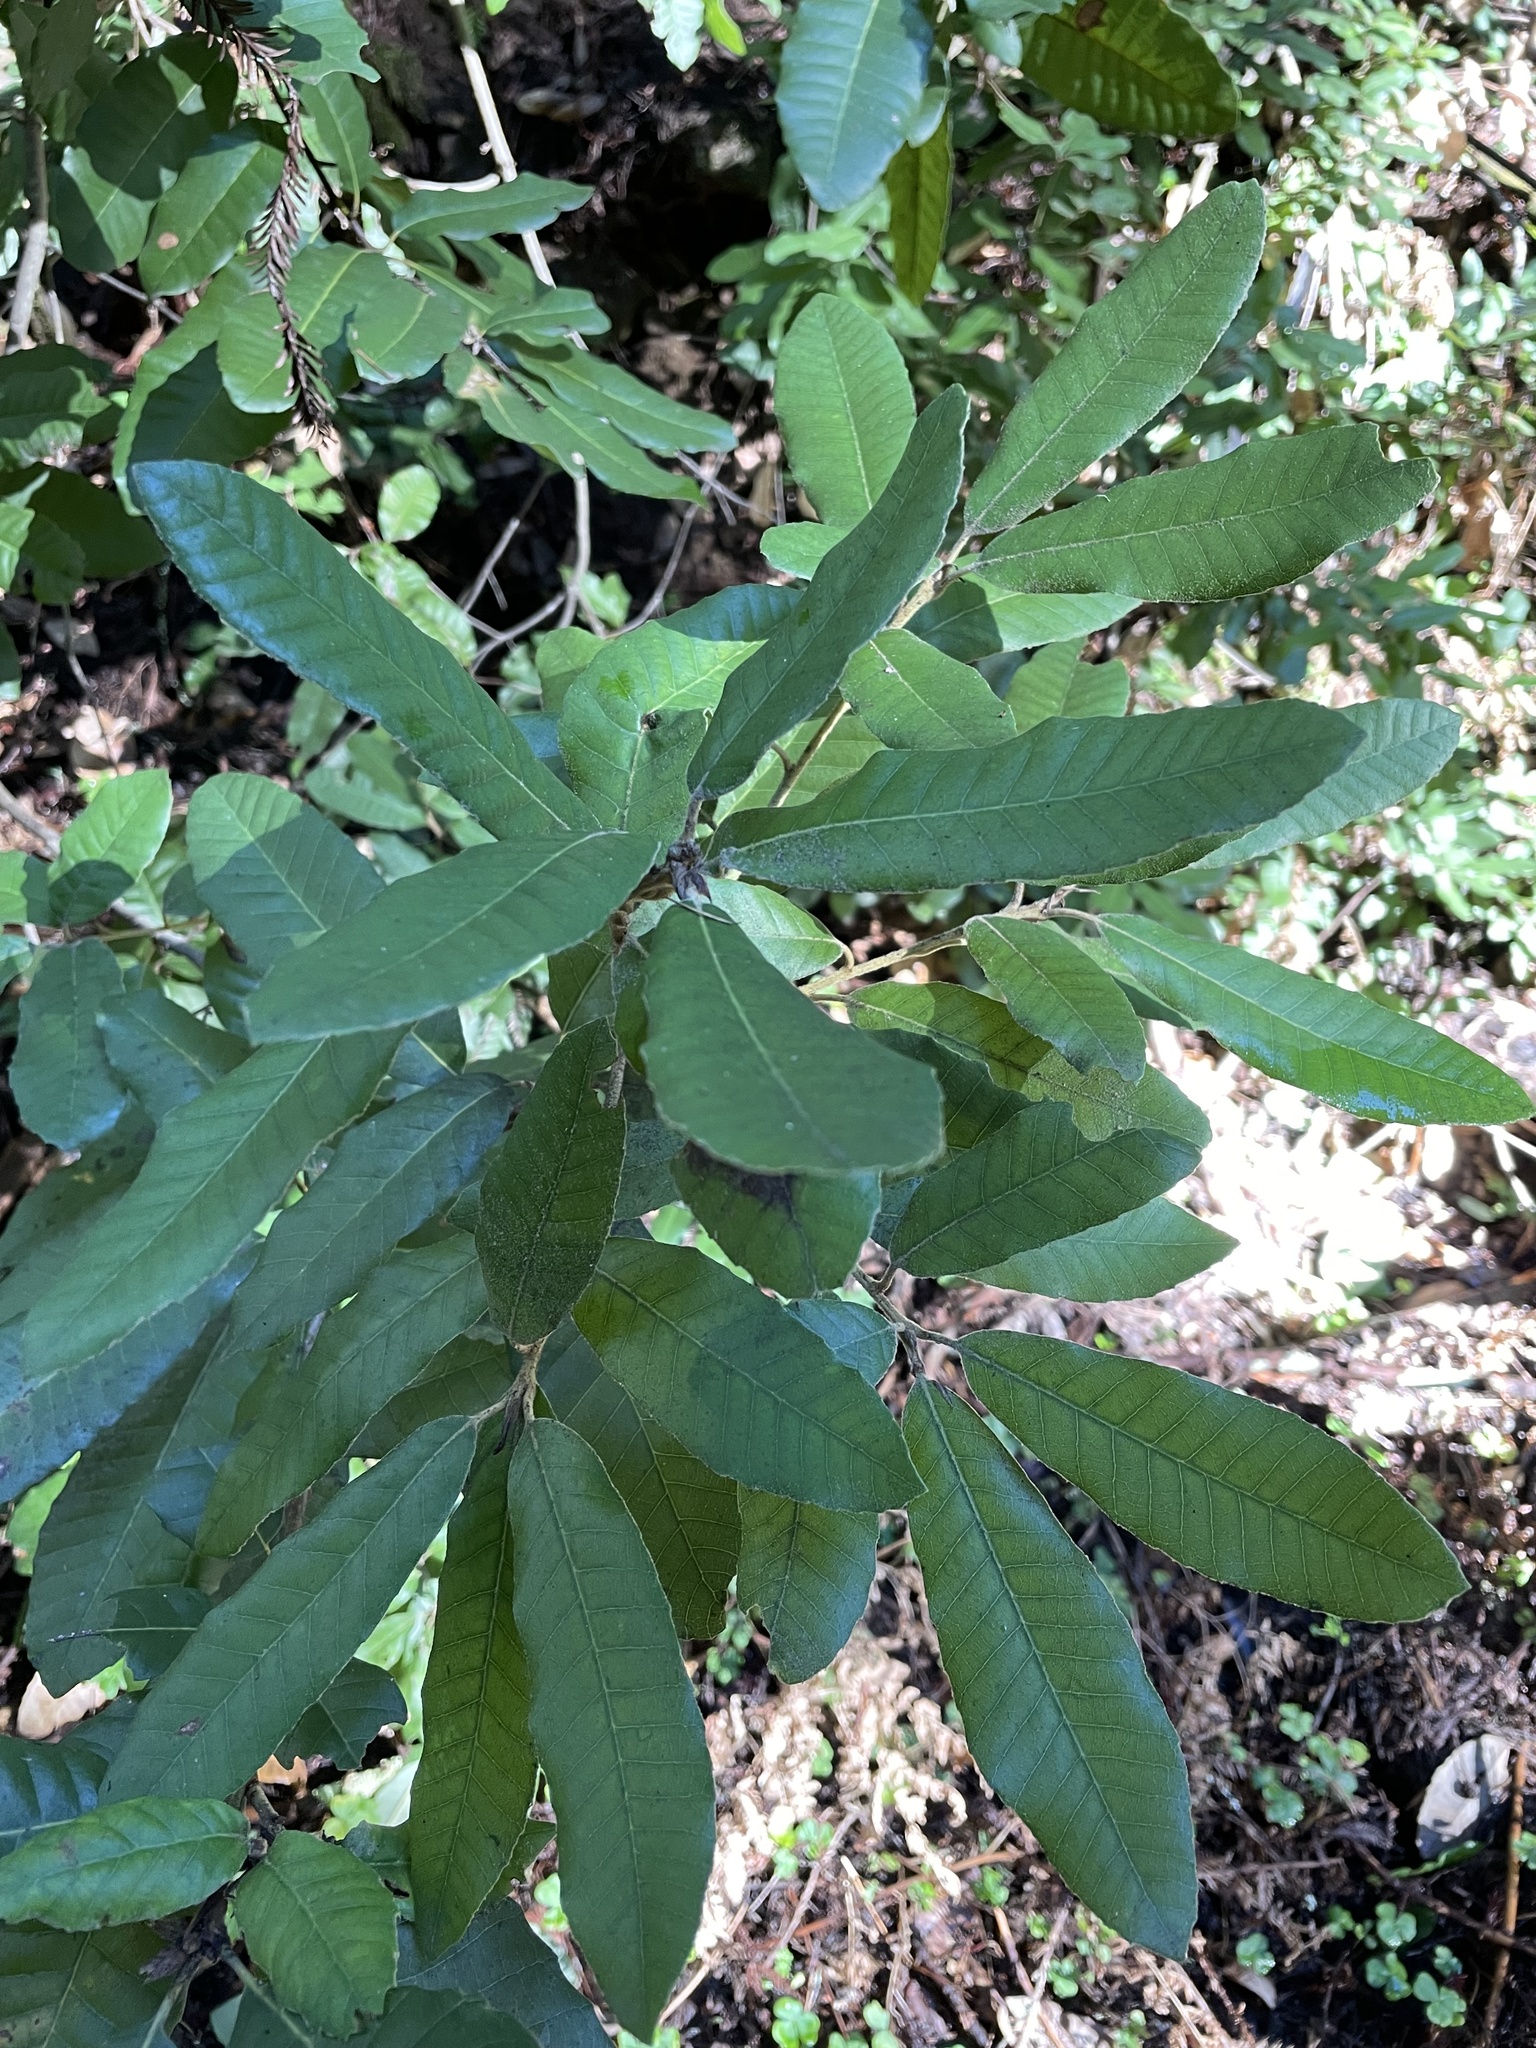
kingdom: Plantae
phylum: Tracheophyta
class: Magnoliopsida
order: Fagales
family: Fagaceae
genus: Notholithocarpus
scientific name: Notholithocarpus densiflorus
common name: Tan bark oak
